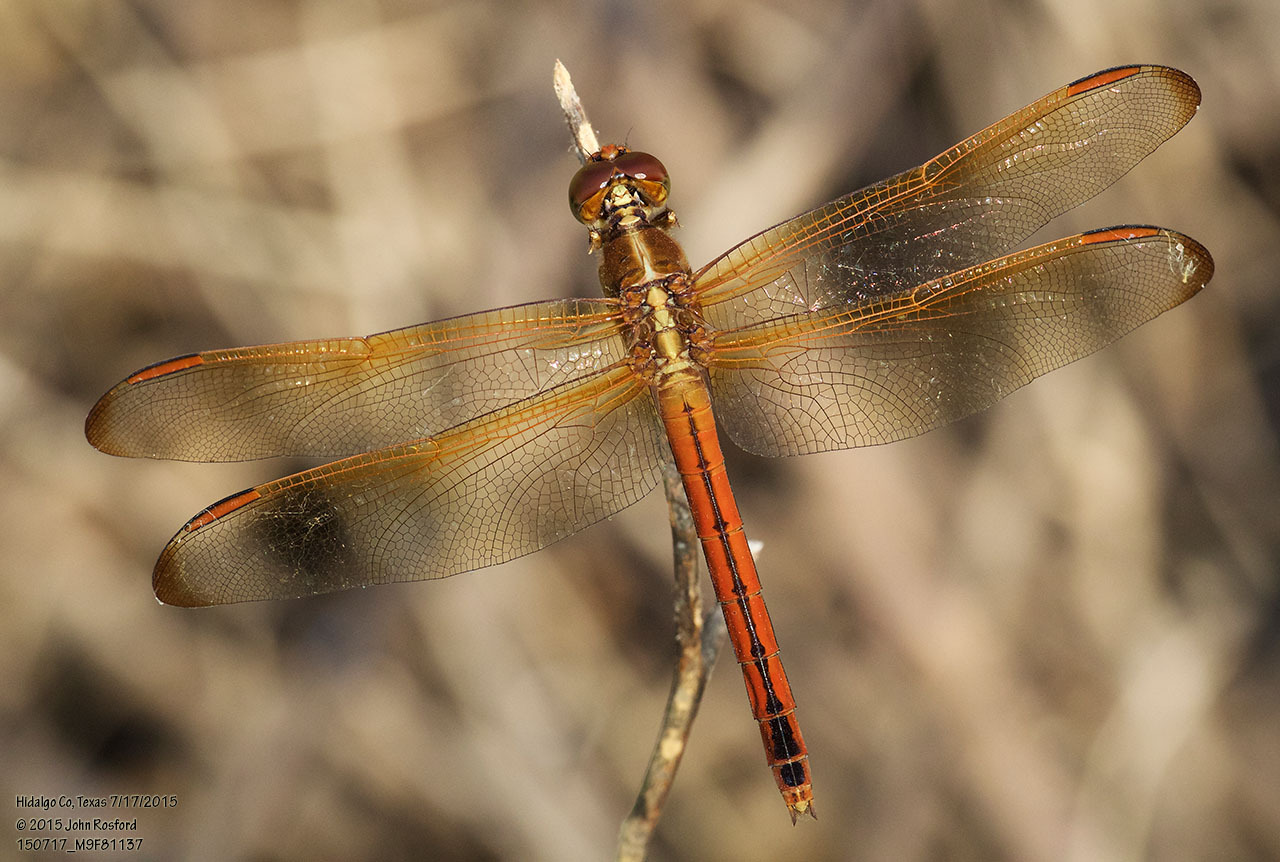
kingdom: Animalia
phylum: Arthropoda
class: Insecta
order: Odonata
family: Libellulidae
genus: Libellula
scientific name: Libellula needhami
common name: Needham's skimmer
